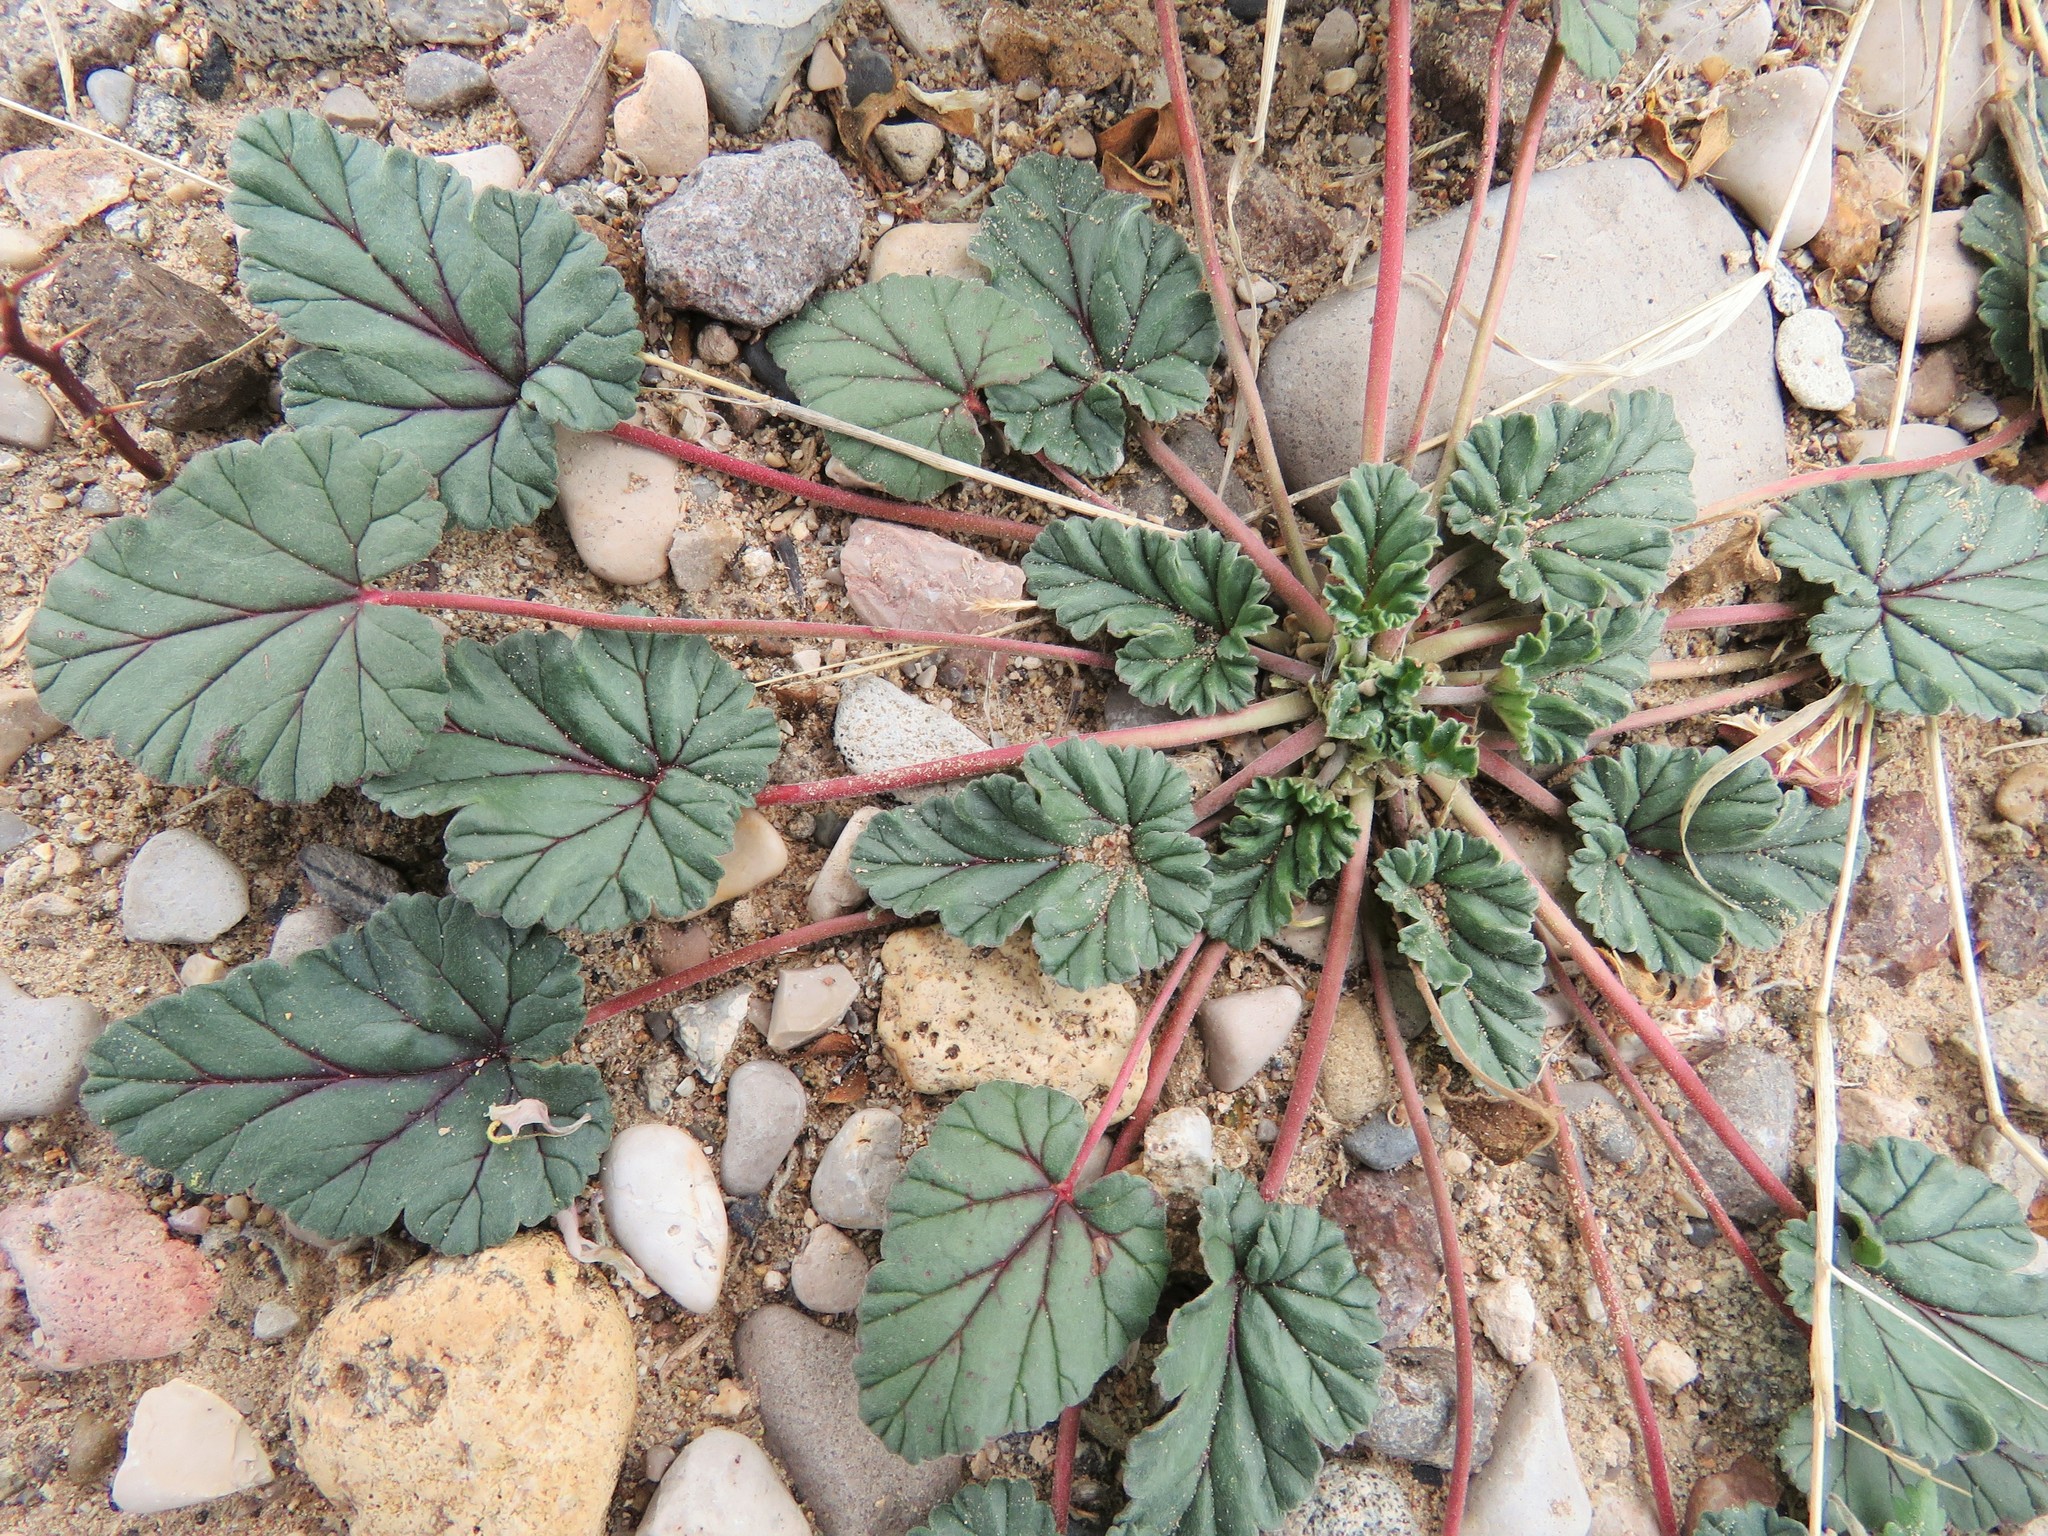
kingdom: Plantae
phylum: Tracheophyta
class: Magnoliopsida
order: Geraniales
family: Geraniaceae
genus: Erodium
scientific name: Erodium texanum
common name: Texas stork's-bill
